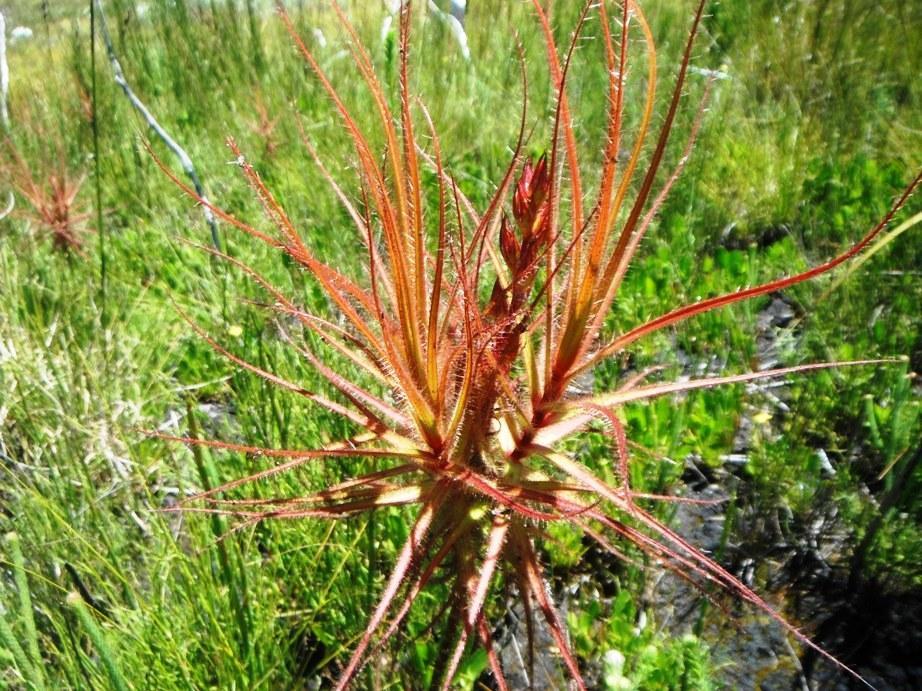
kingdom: Plantae
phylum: Tracheophyta
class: Magnoliopsida
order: Ericales
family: Roridulaceae
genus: Roridula
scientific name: Roridula gorgonias
